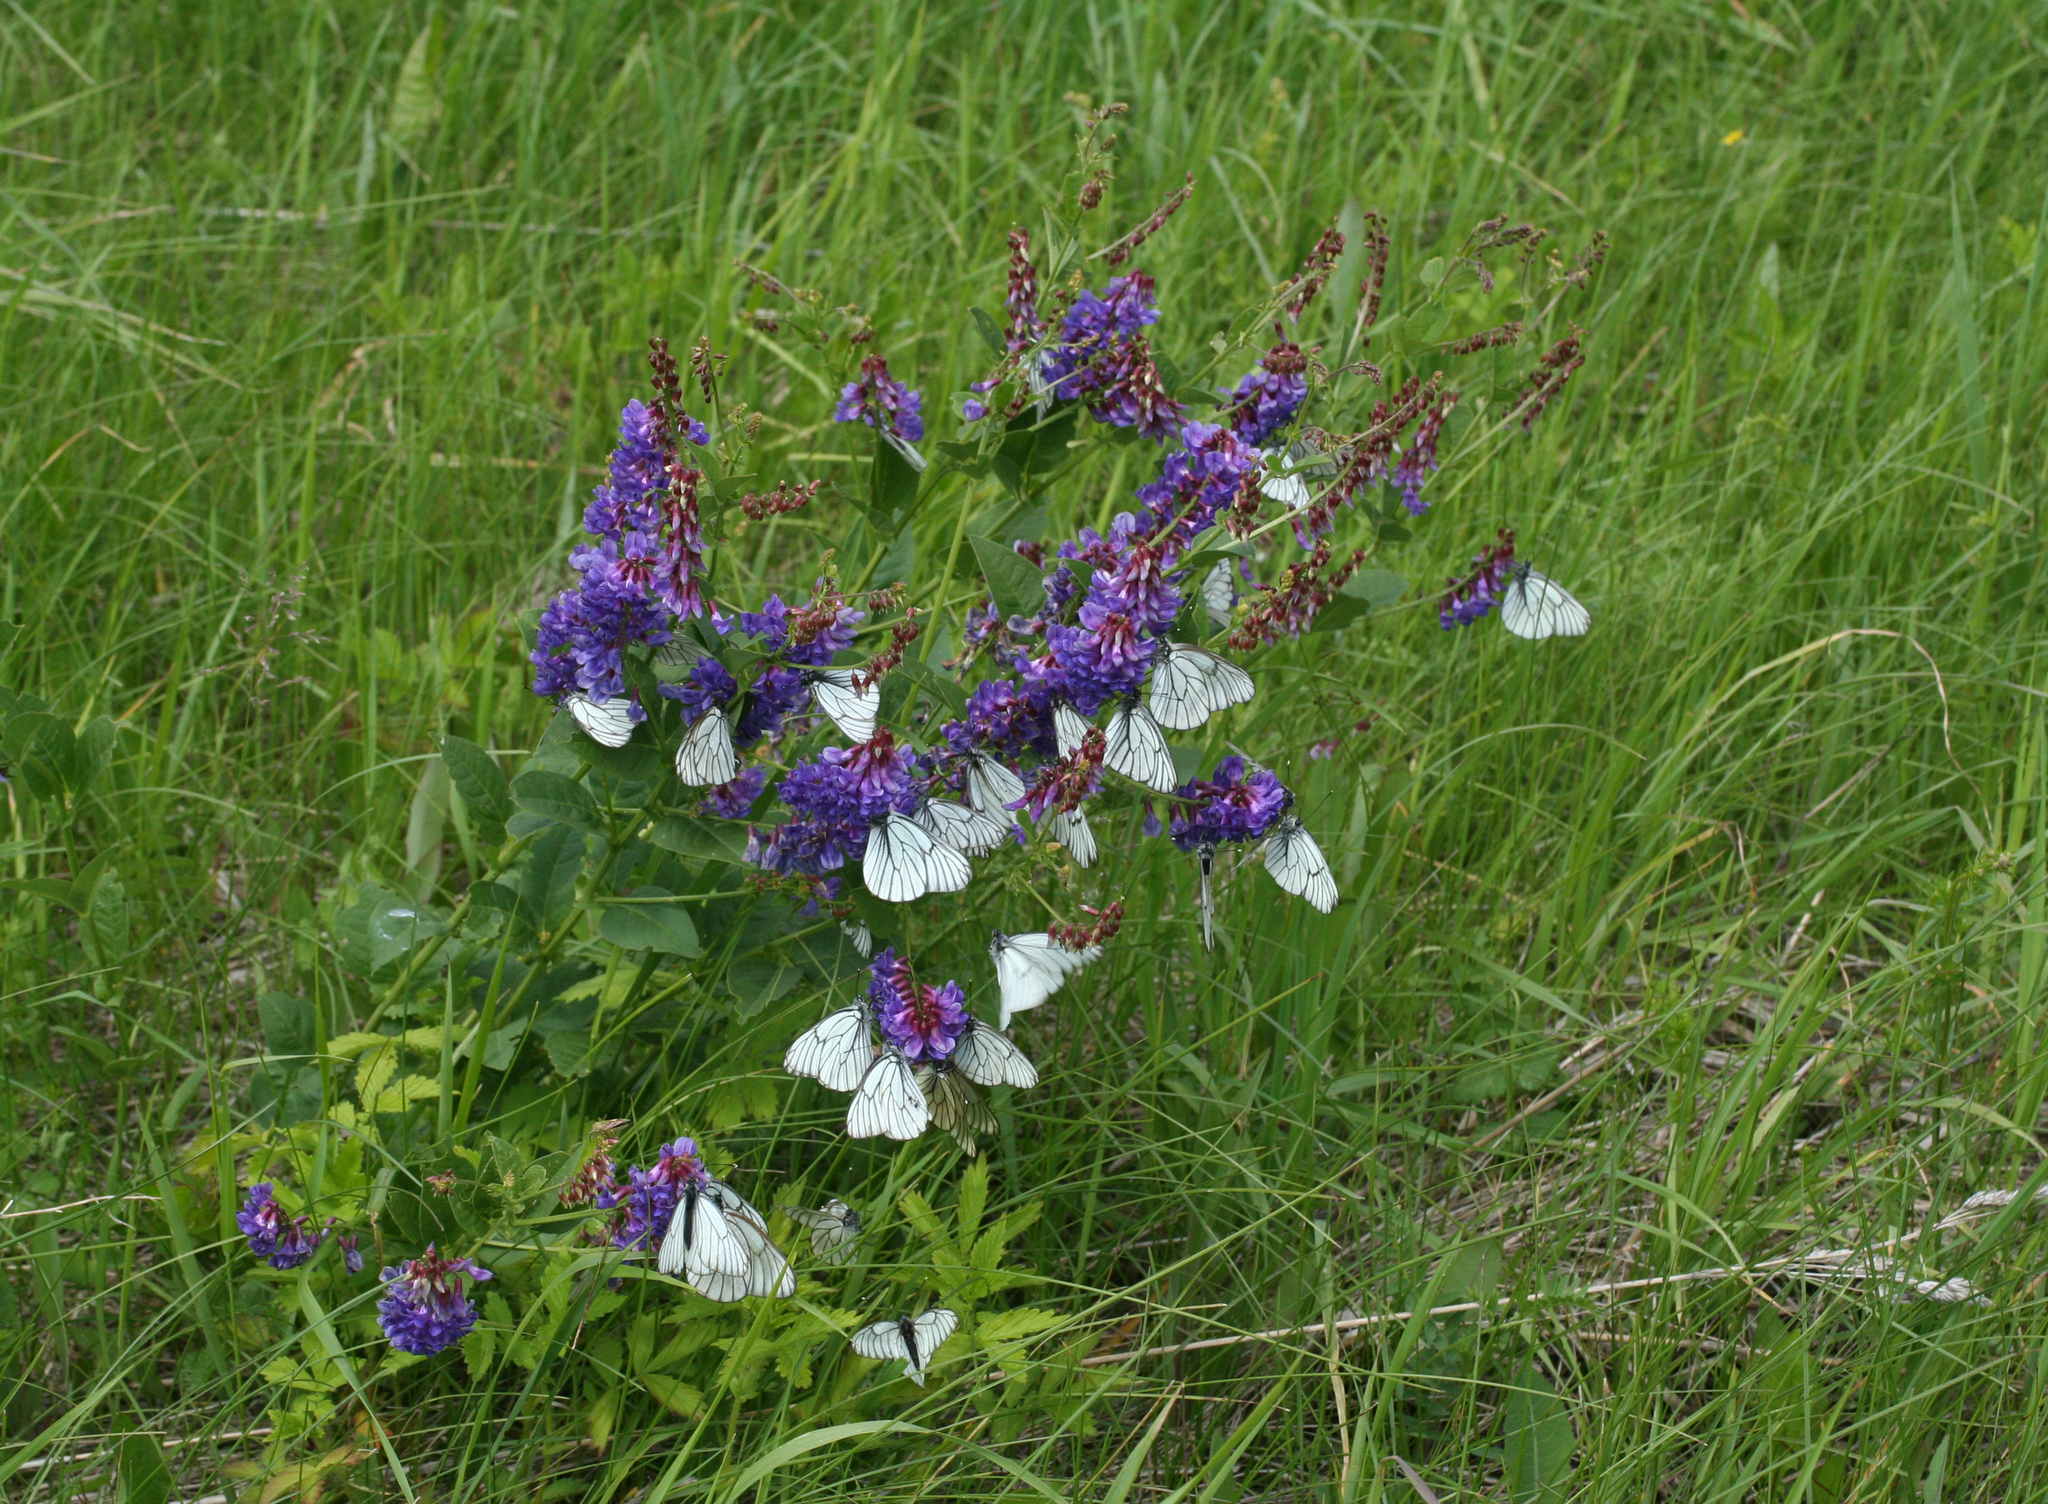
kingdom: Animalia
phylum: Arthropoda
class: Insecta
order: Lepidoptera
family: Pieridae
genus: Aporia
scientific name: Aporia crataegi
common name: Black-veined white
